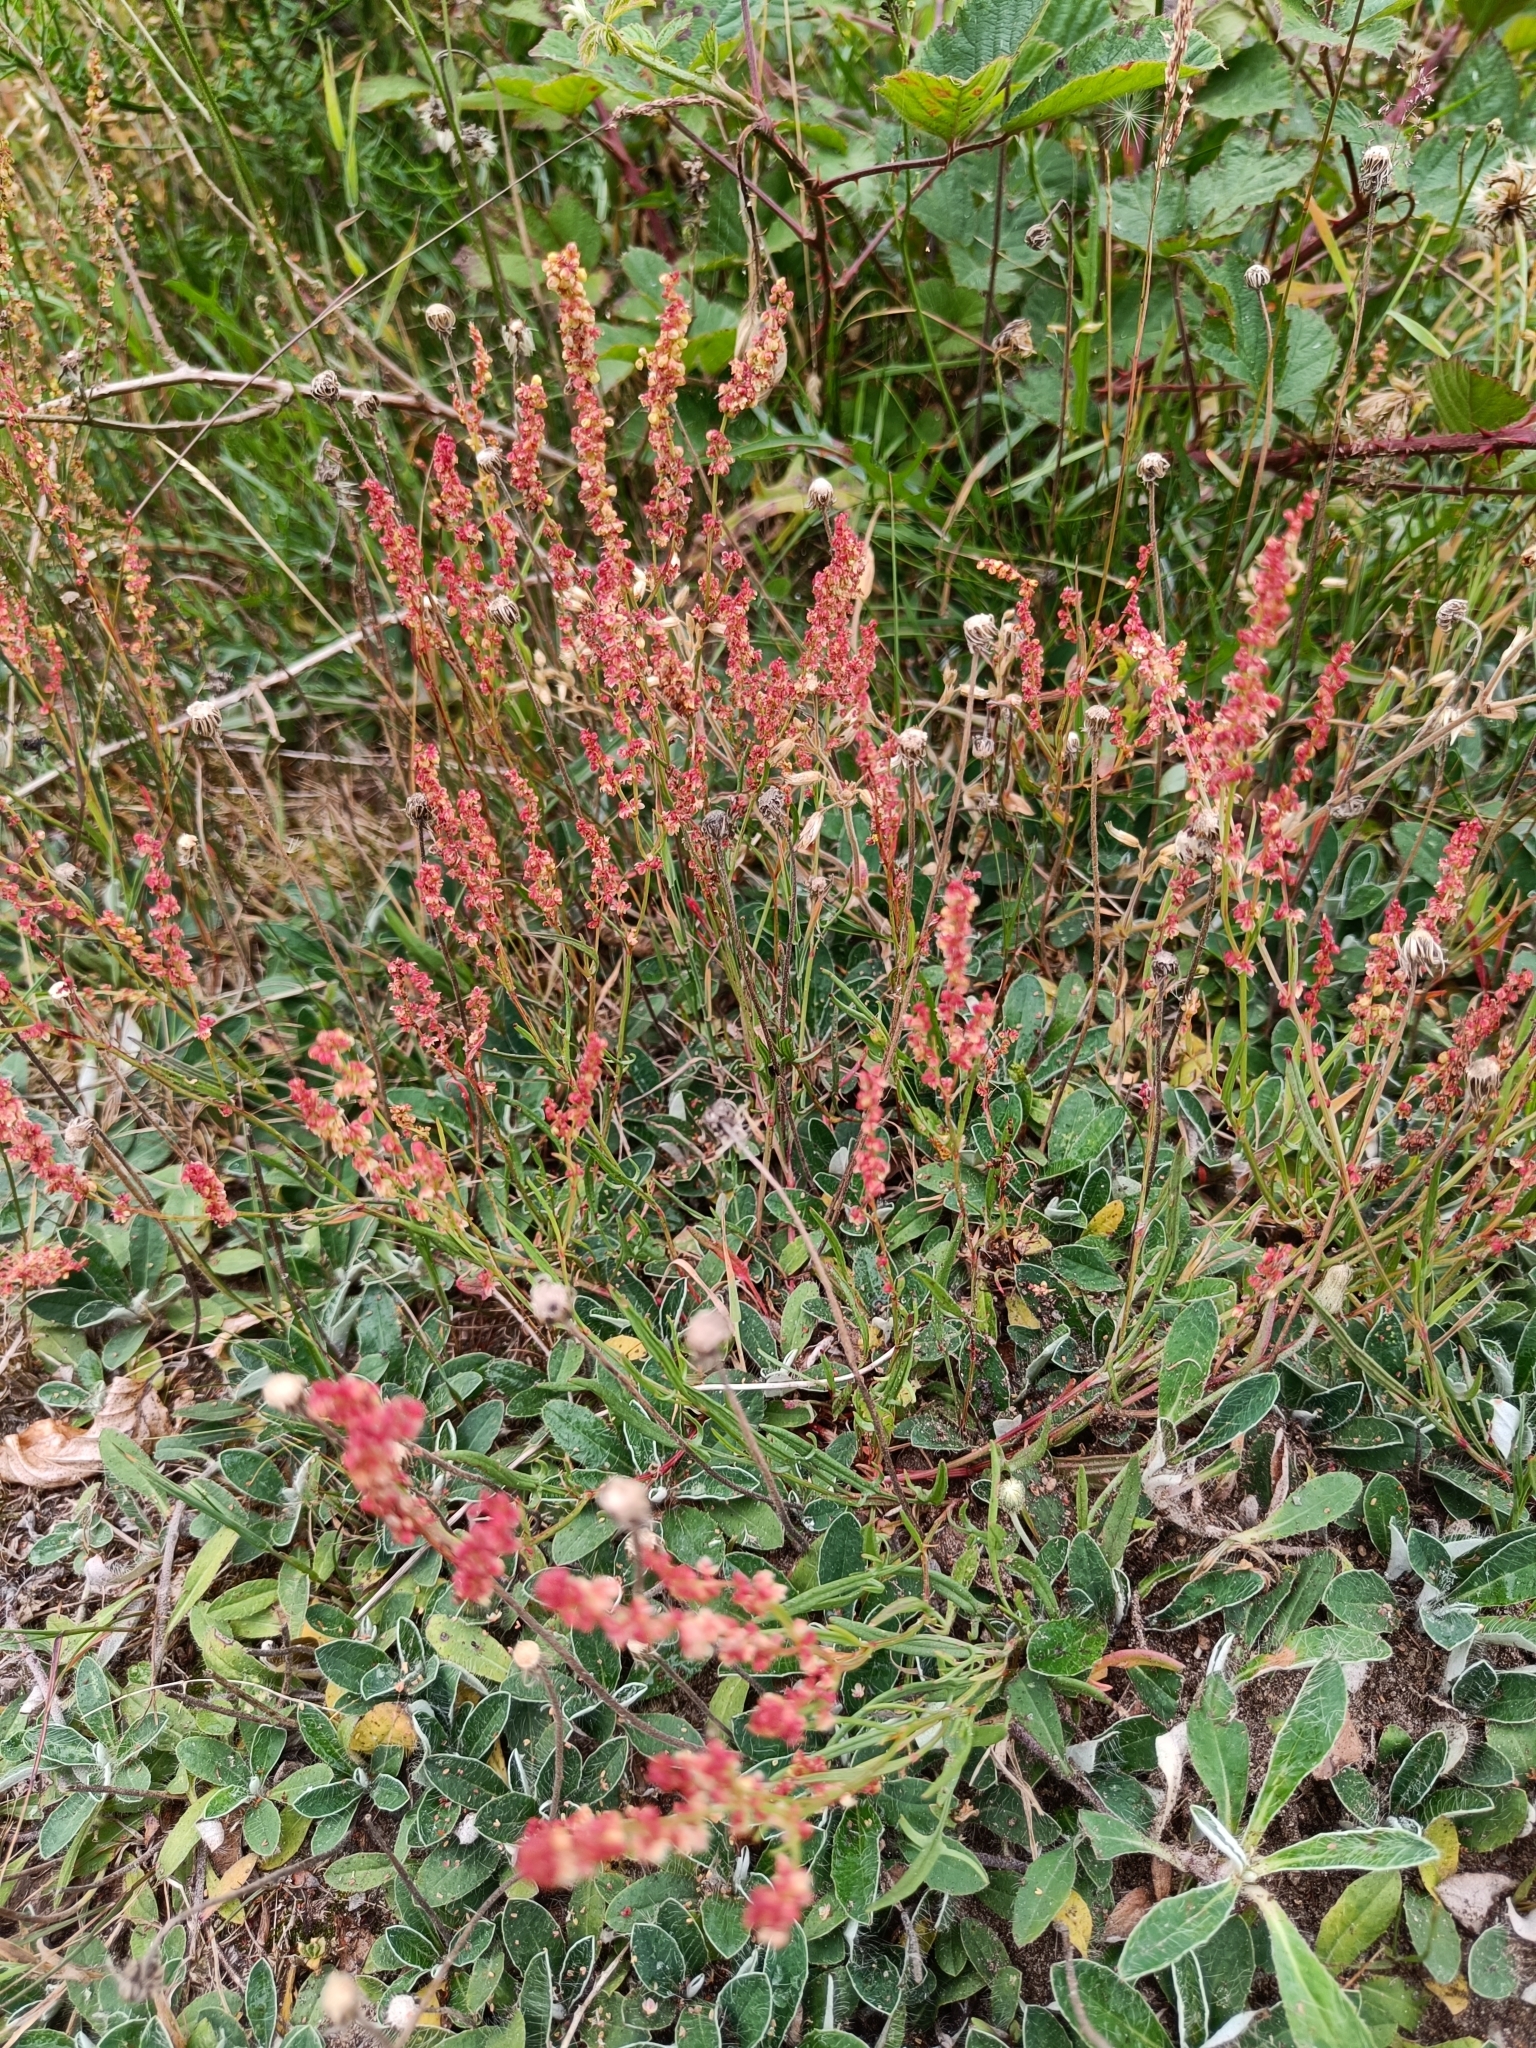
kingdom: Plantae
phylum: Tracheophyta
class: Magnoliopsida
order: Caryophyllales
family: Polygonaceae
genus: Rumex
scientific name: Rumex acetosella
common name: Common sheep sorrel
